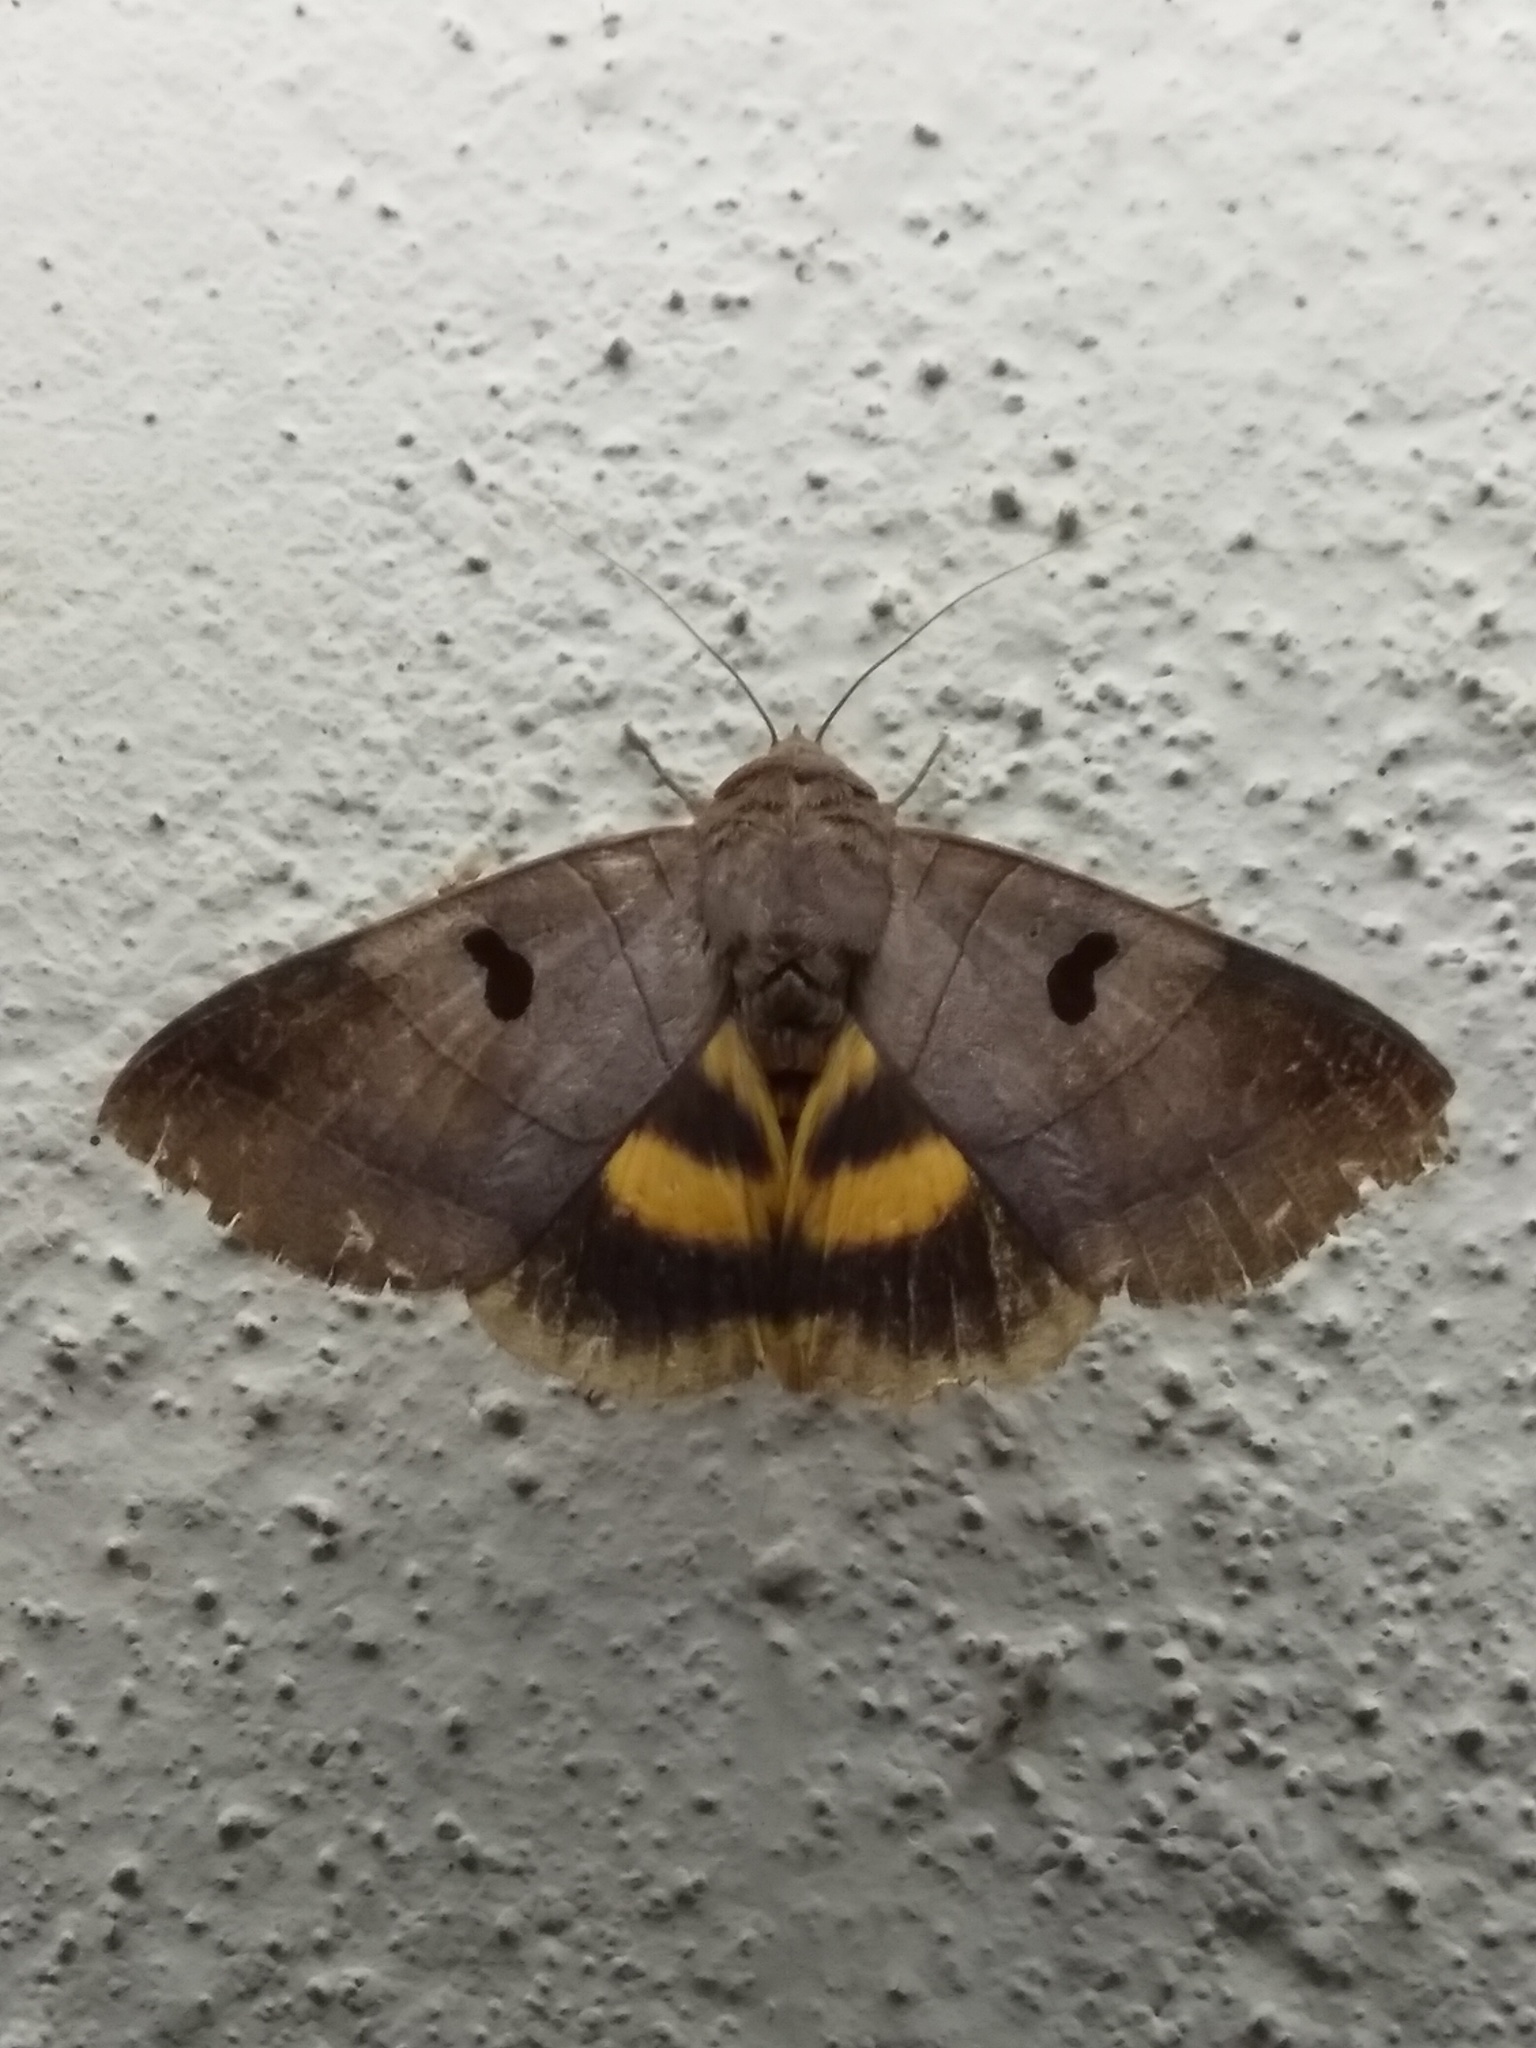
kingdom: Animalia
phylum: Arthropoda
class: Insecta
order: Lepidoptera
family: Erebidae
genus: Thyas
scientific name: Thyas coronata
